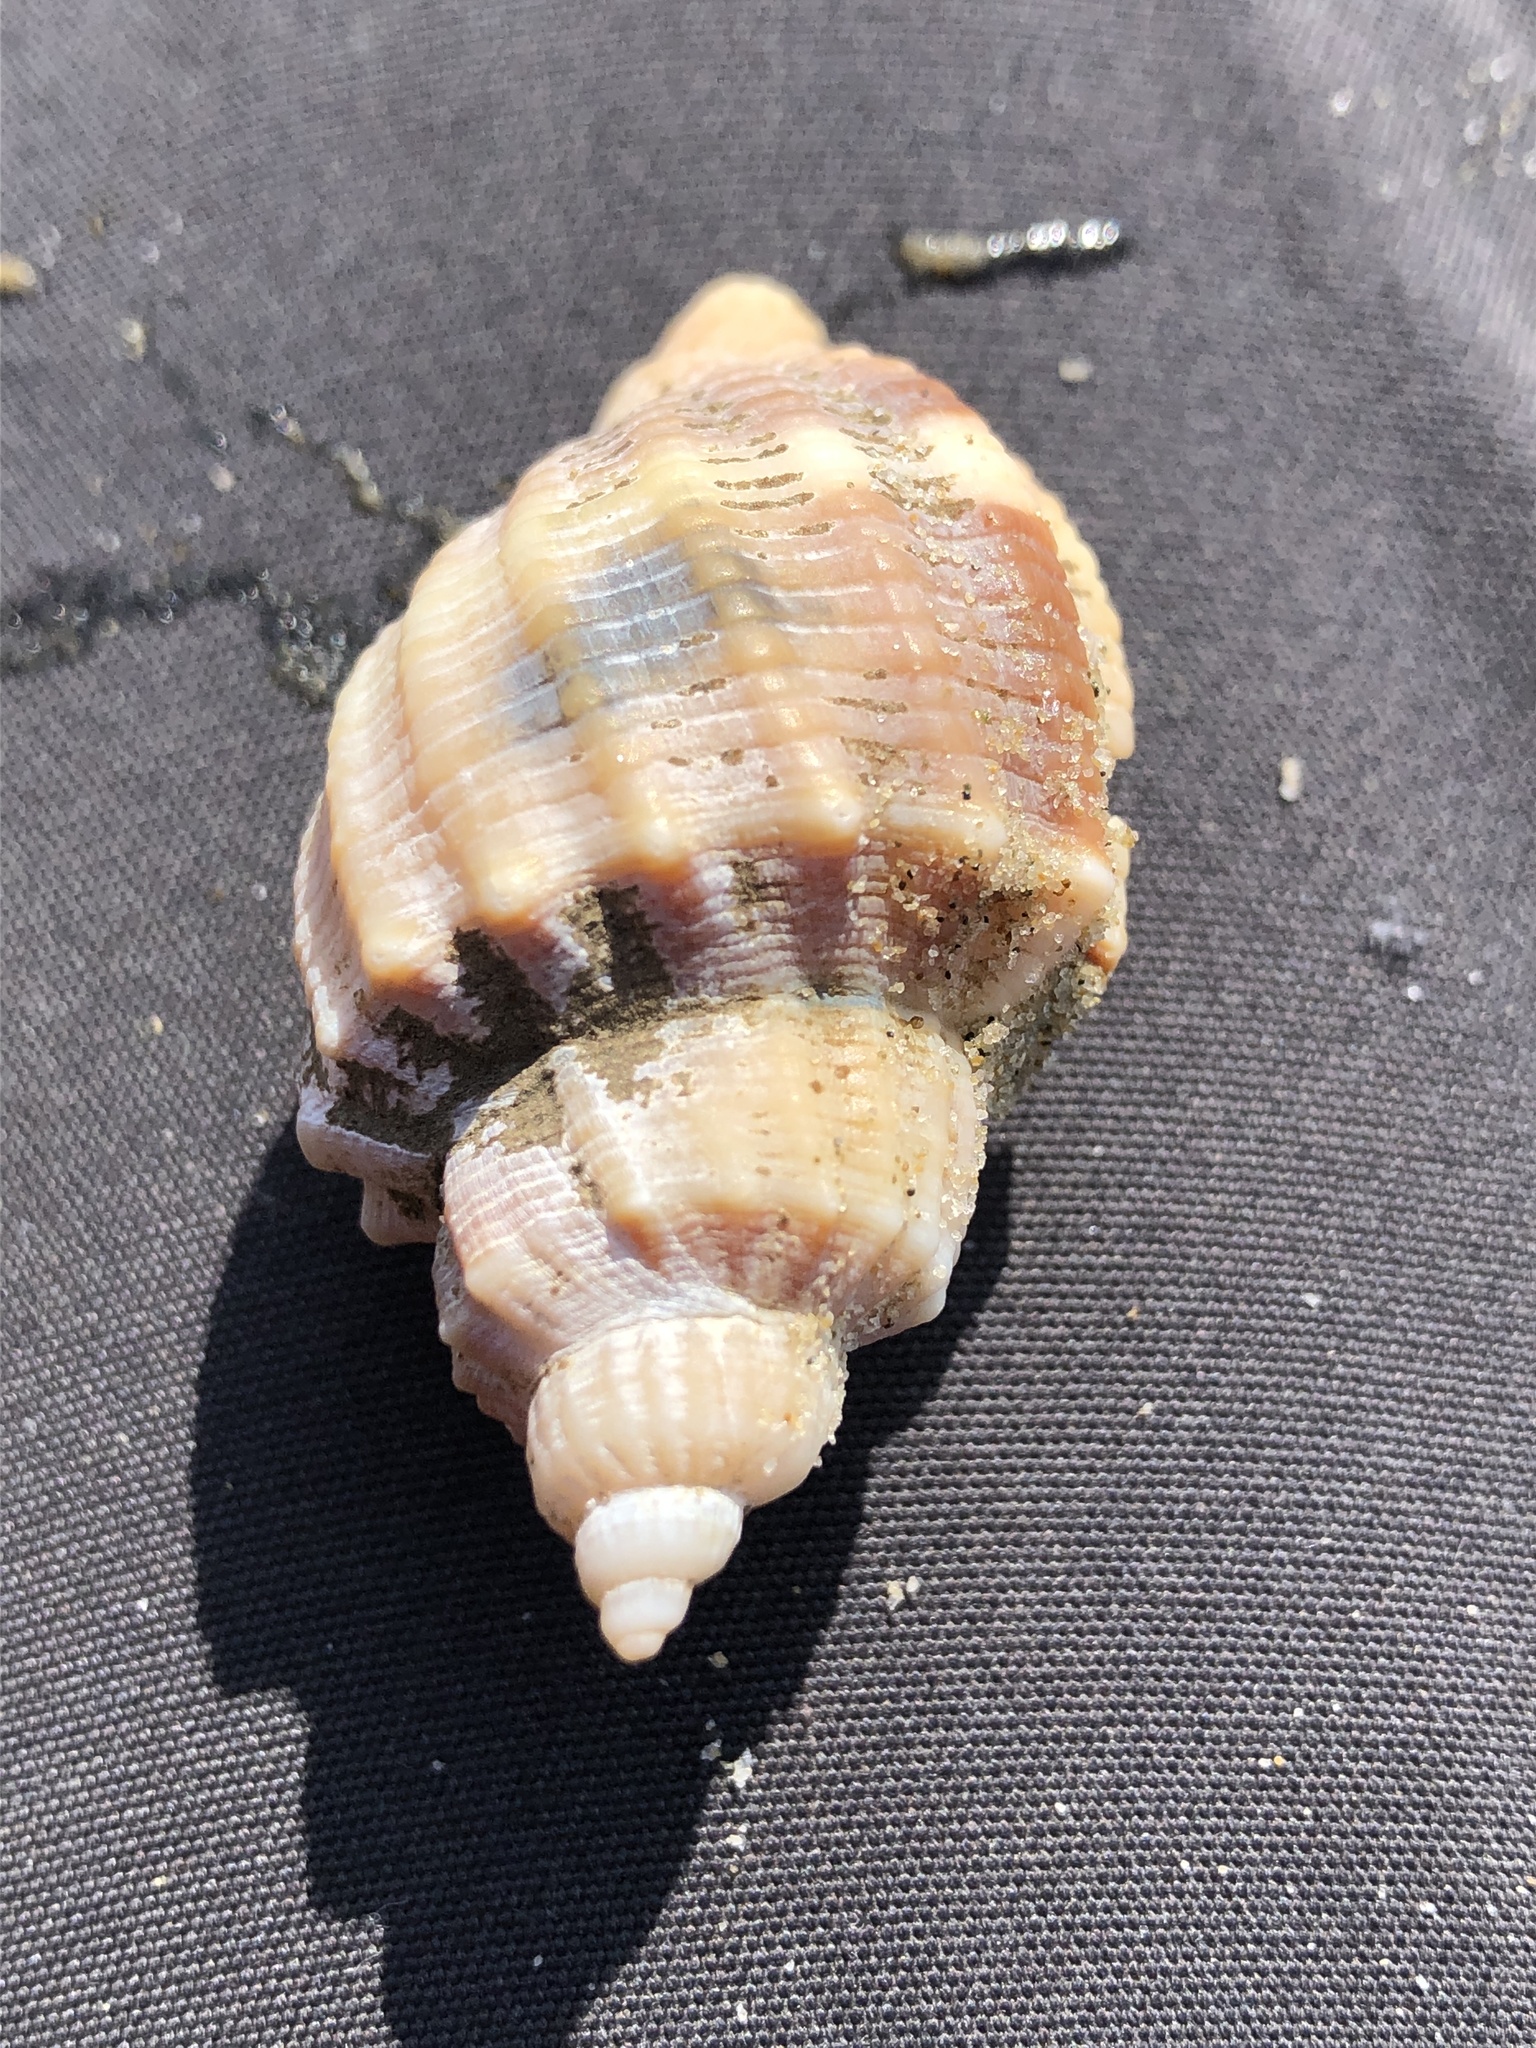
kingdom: Animalia
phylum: Mollusca
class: Gastropoda
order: Neogastropoda
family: Cancellariidae
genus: Sydaphera
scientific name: Sydaphera spengleriana
